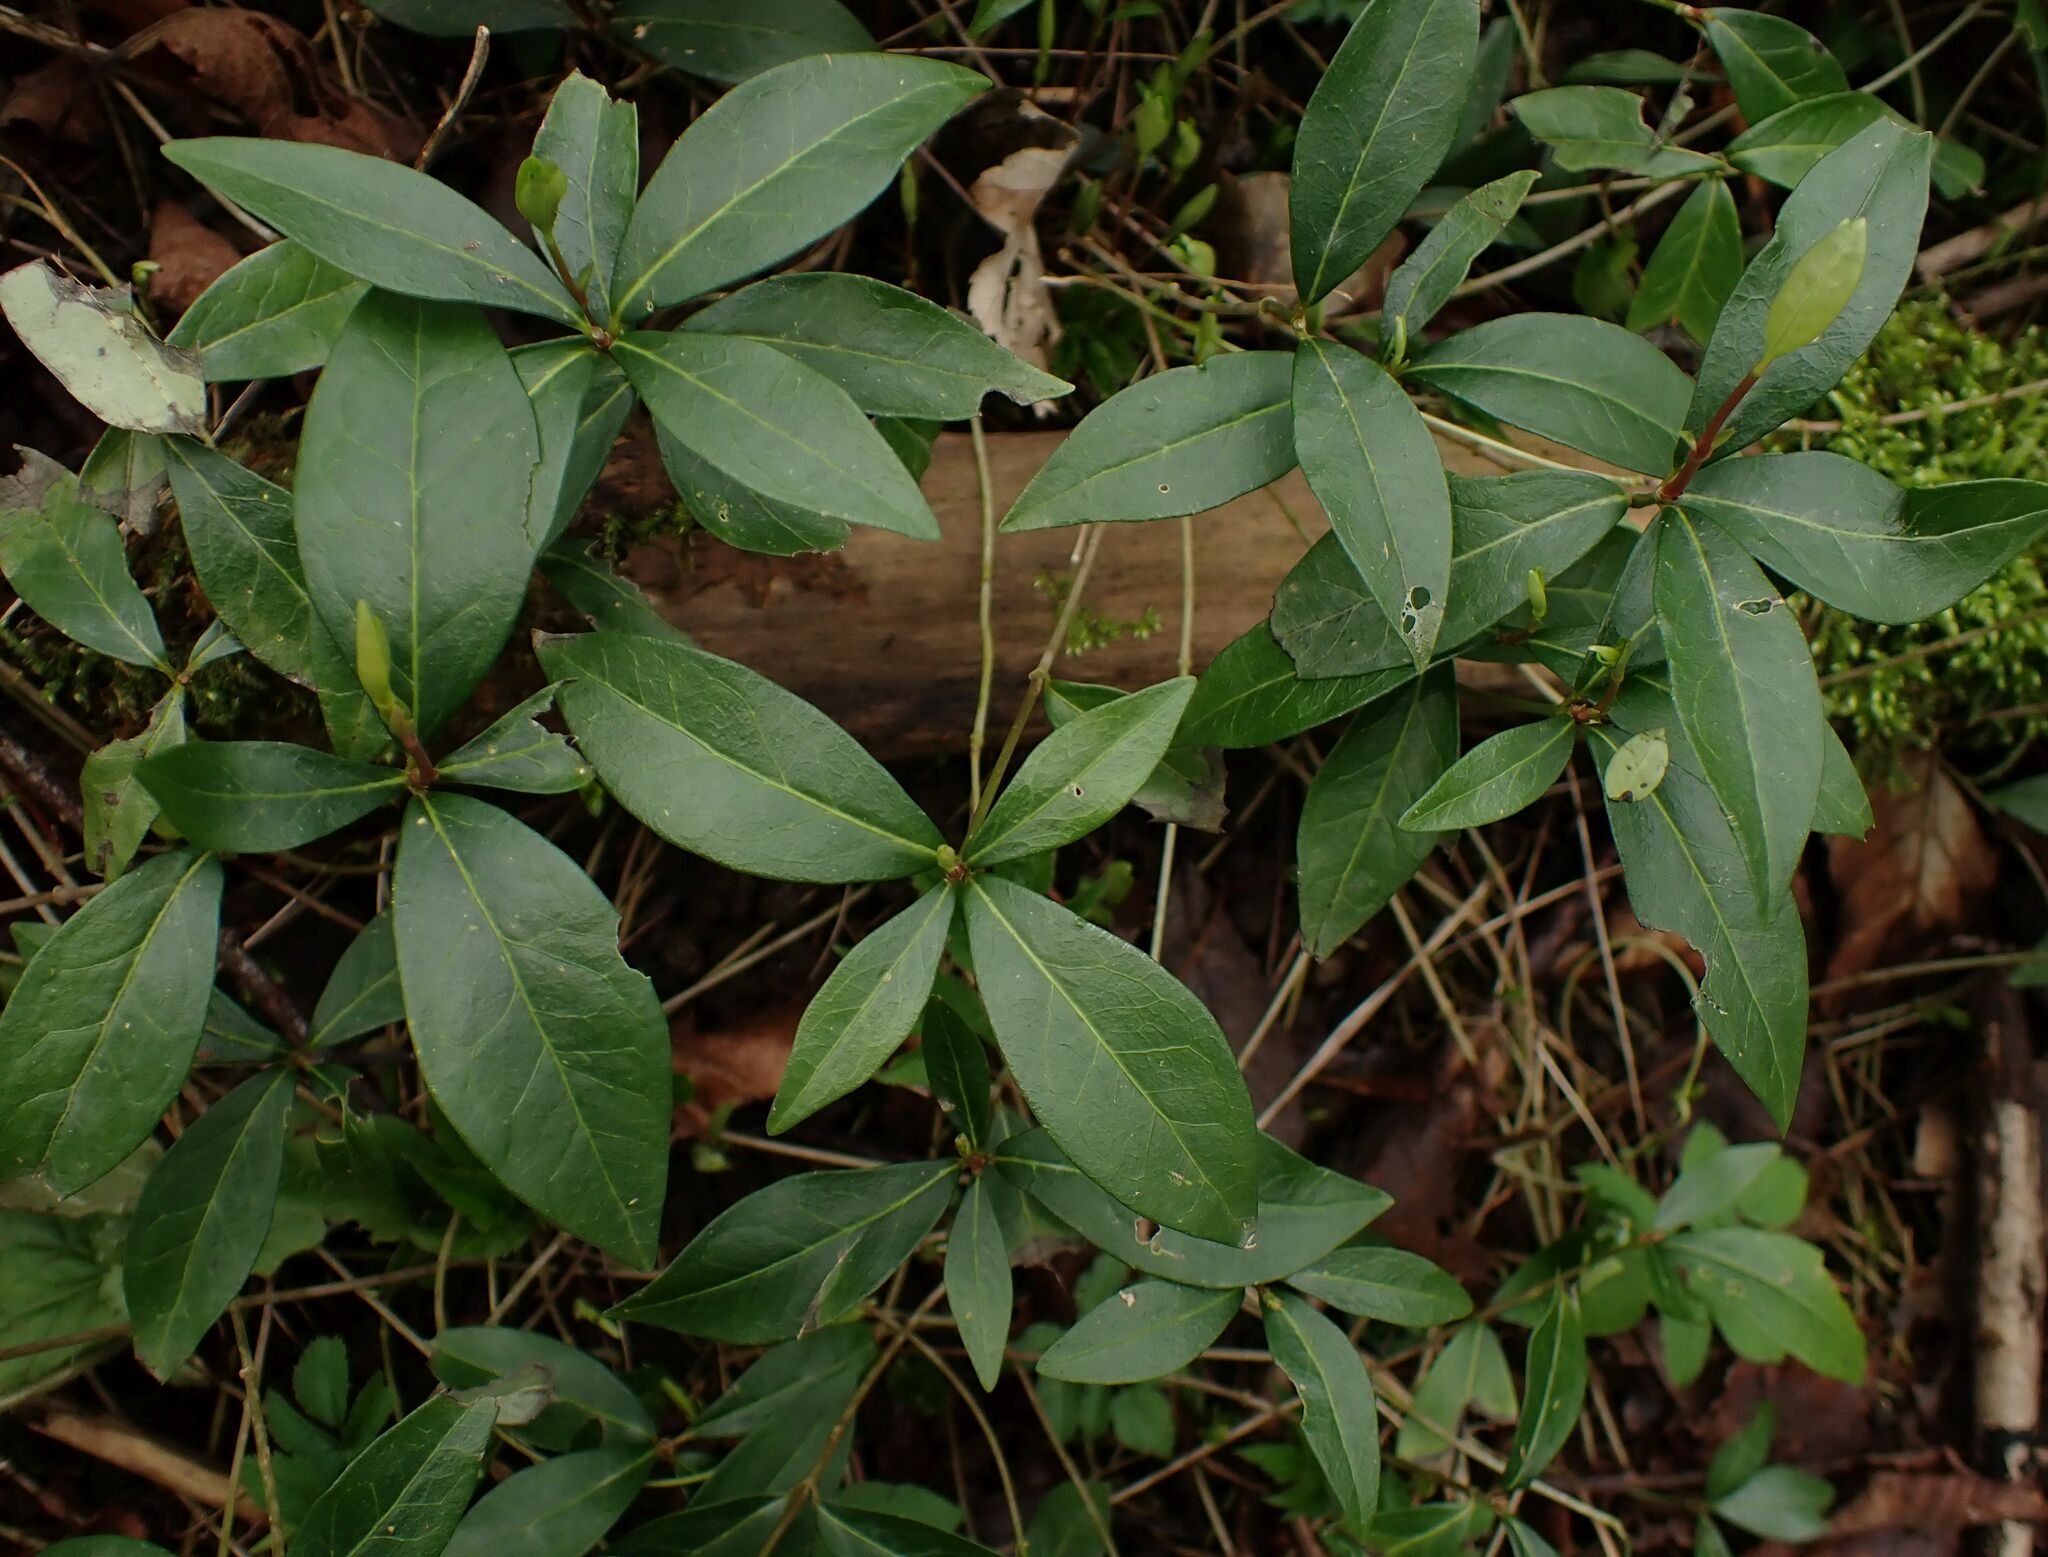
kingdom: Plantae
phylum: Tracheophyta
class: Magnoliopsida
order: Gentianales
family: Apocynaceae
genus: Vinca
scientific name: Vinca minor
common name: Lesser periwinkle
